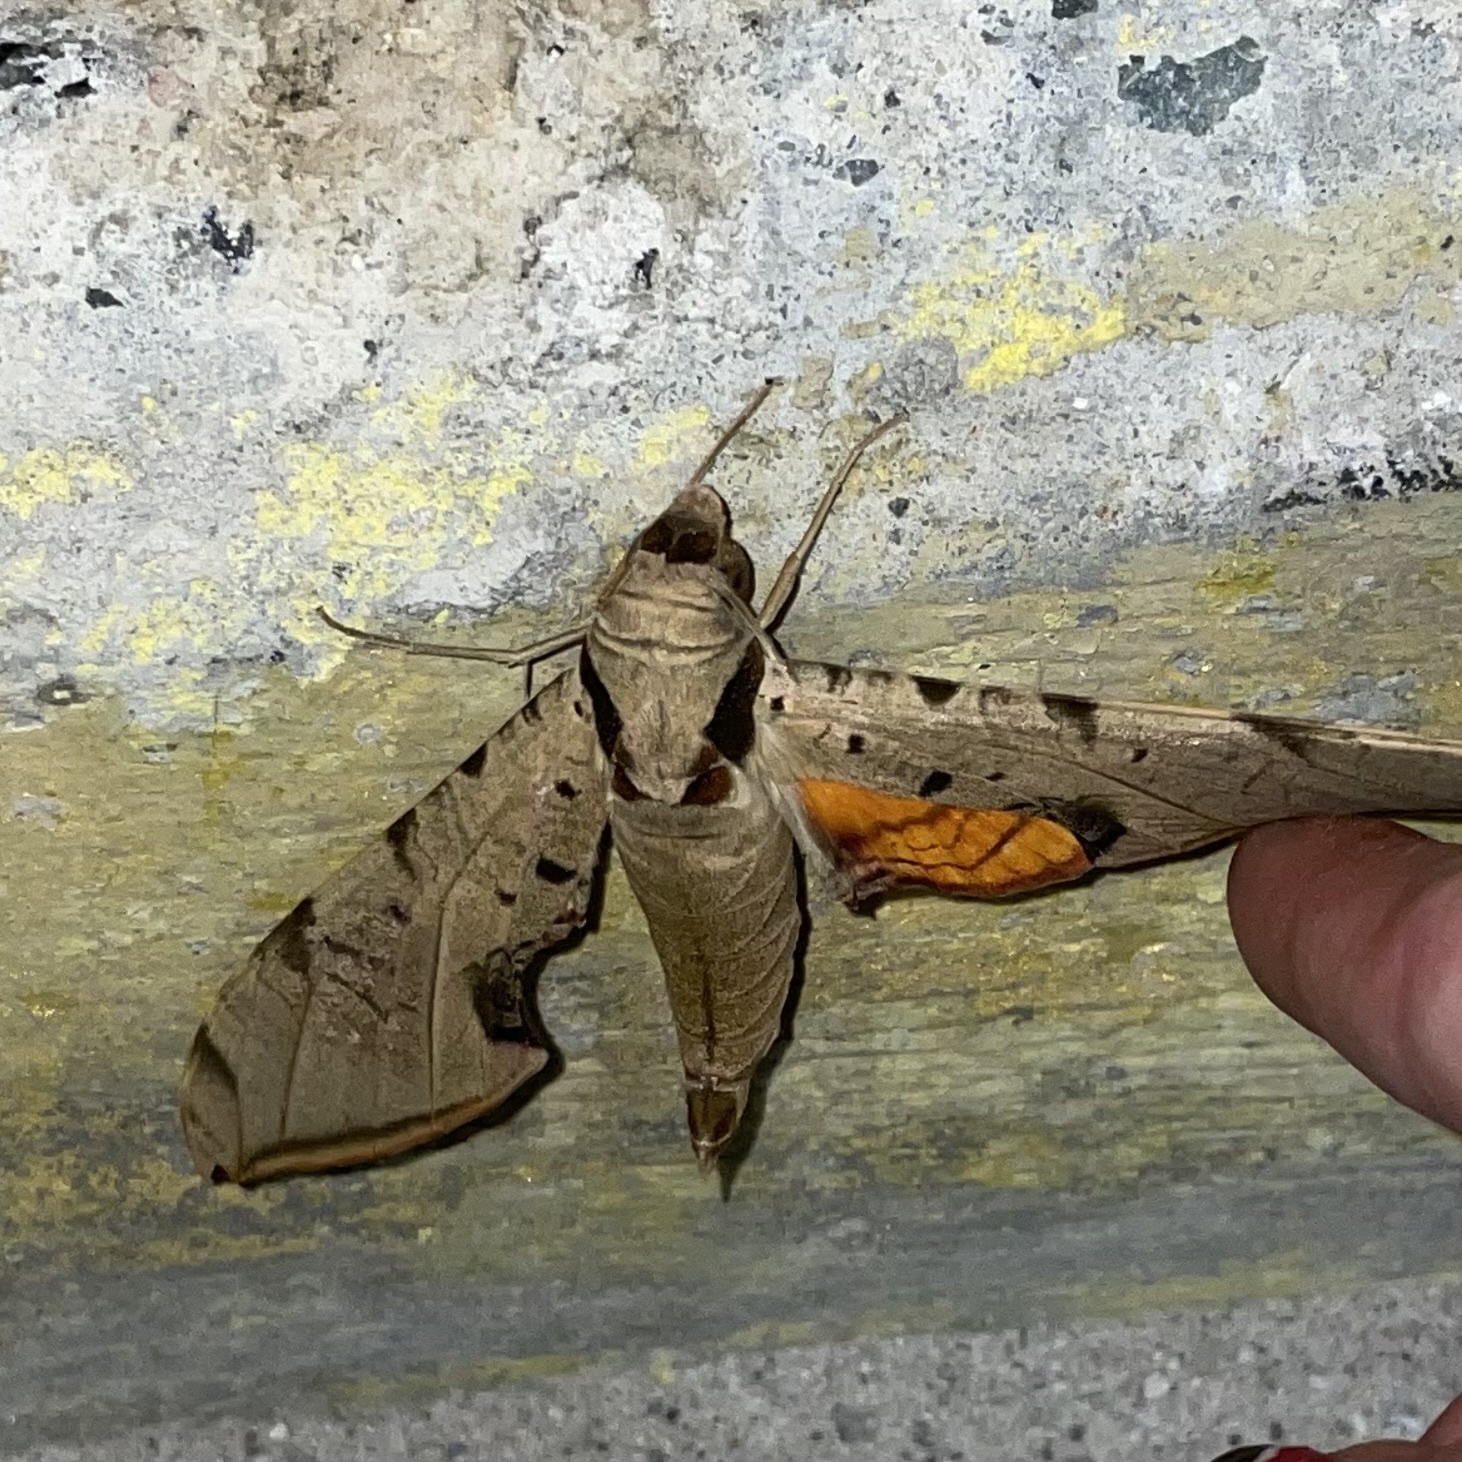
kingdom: Animalia
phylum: Arthropoda
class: Insecta
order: Lepidoptera
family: Sphingidae
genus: Protambulyx
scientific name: Protambulyx strigilis
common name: Streaked sphinx
